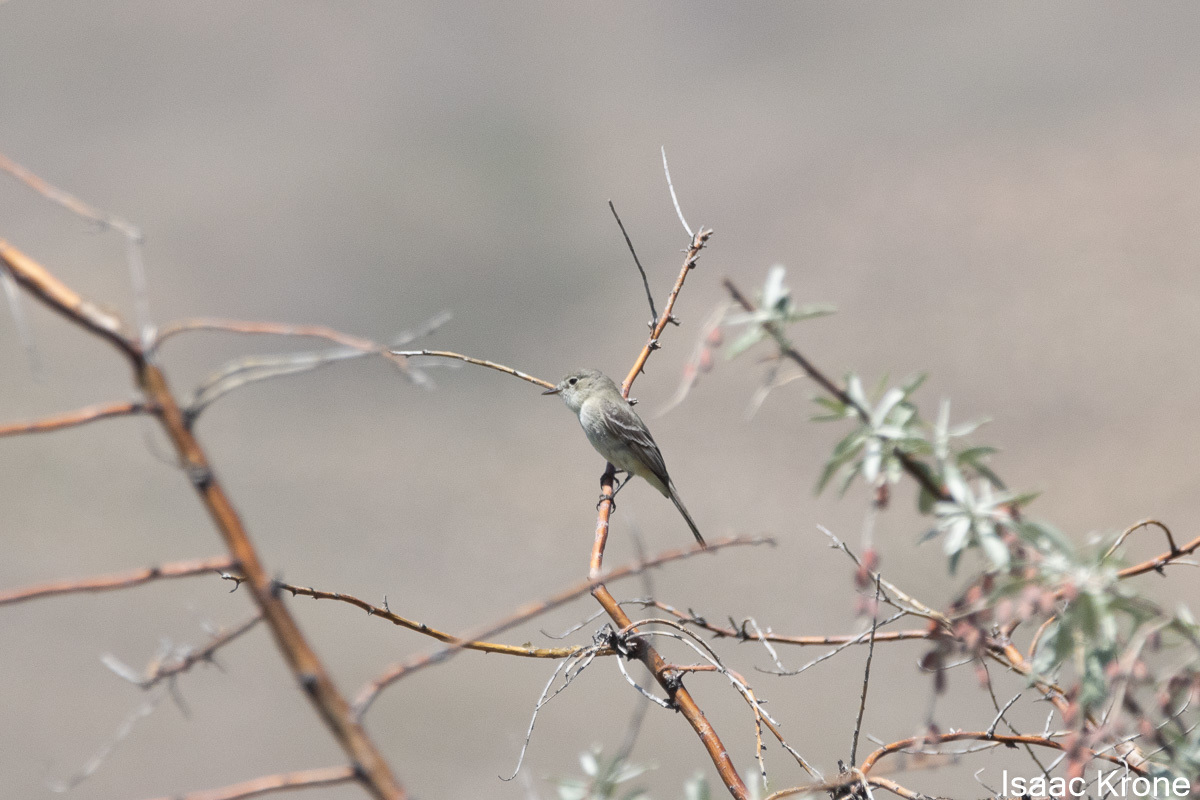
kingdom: Animalia
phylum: Chordata
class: Aves
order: Passeriformes
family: Tyrannidae
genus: Empidonax
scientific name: Empidonax wrightii
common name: Gray flycatcher
